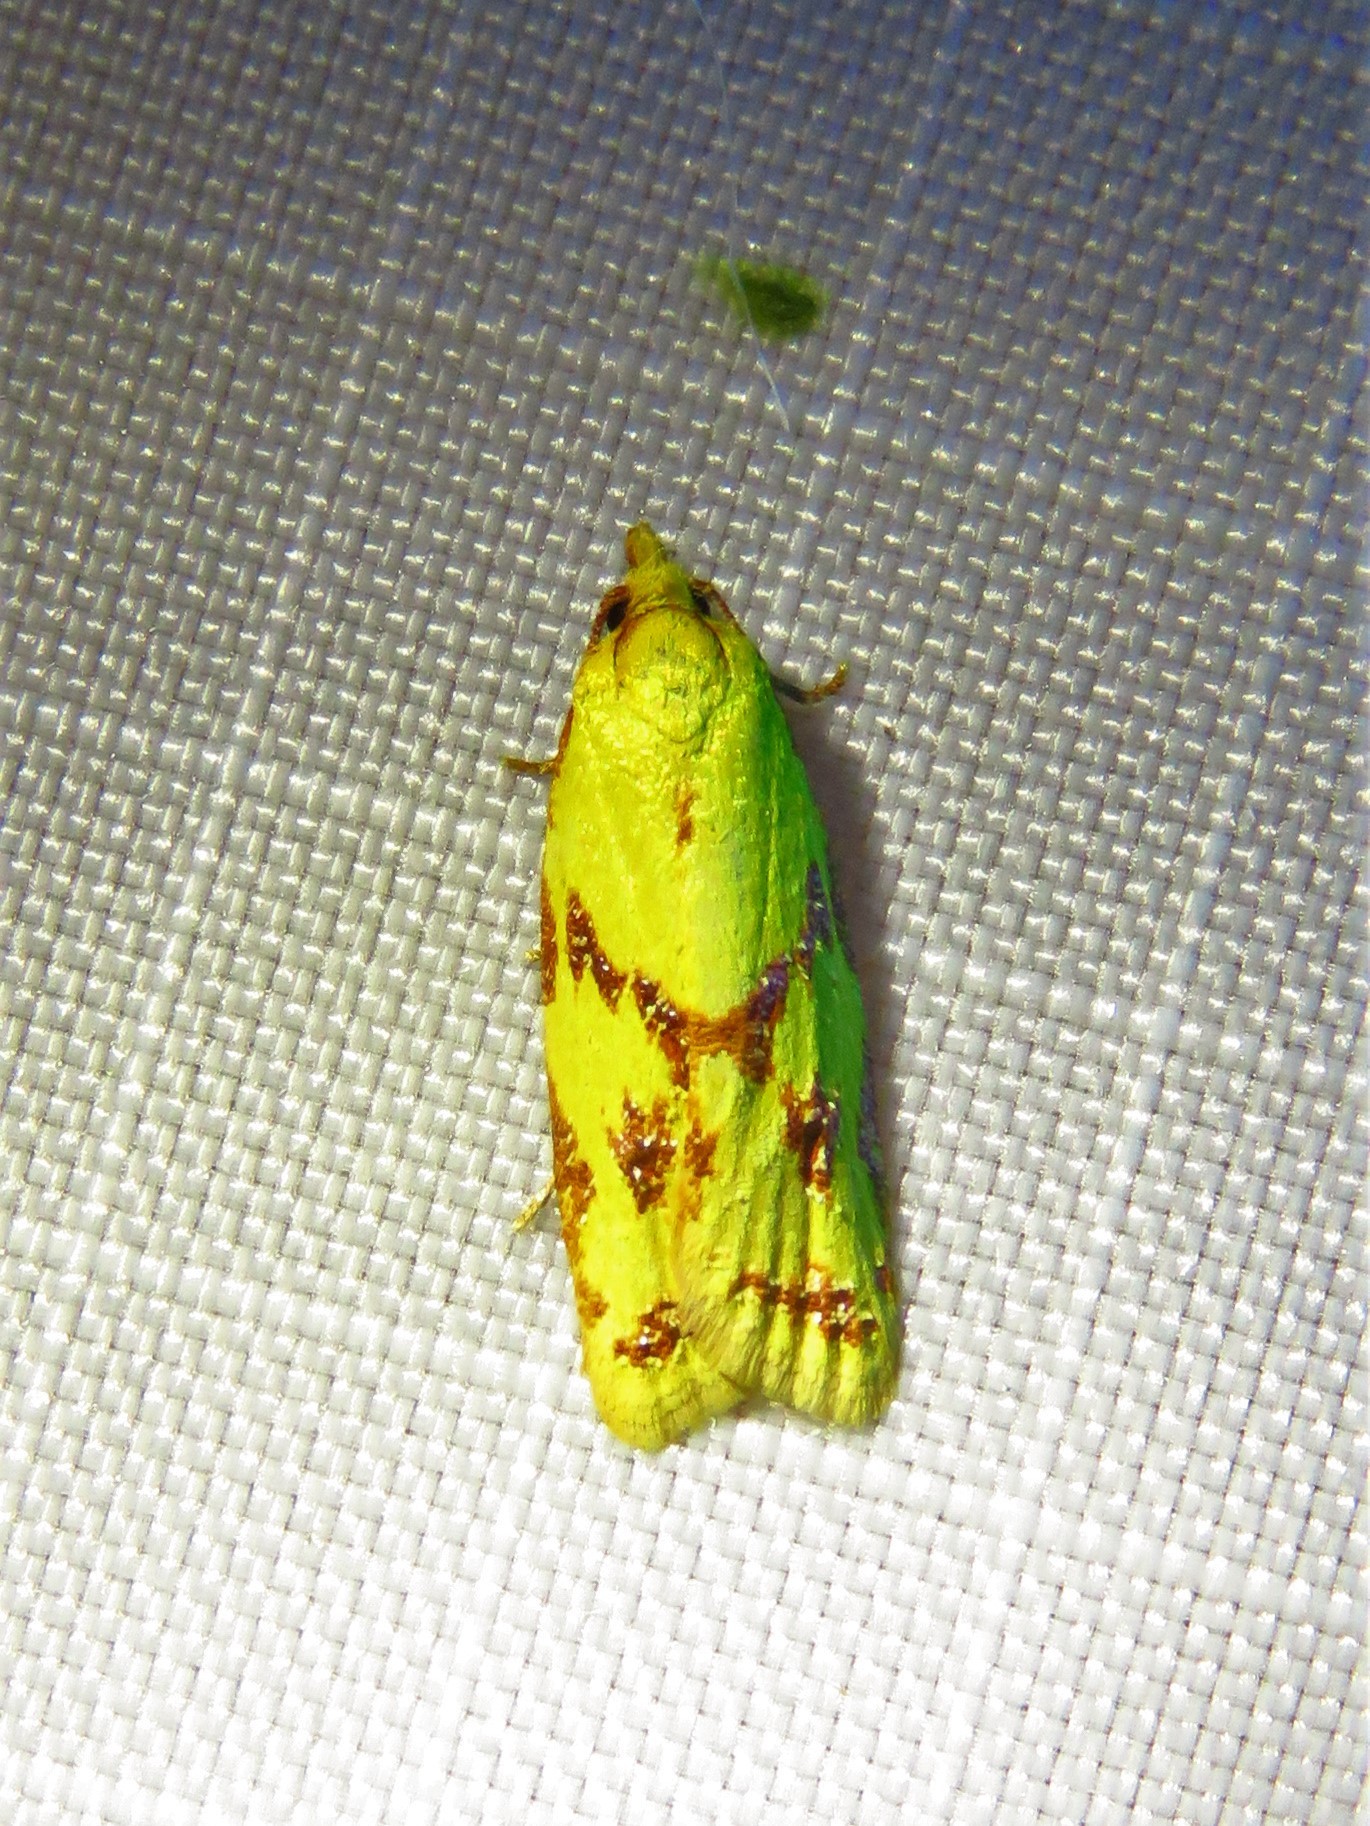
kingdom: Animalia
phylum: Arthropoda
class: Insecta
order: Lepidoptera
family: Tortricidae
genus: Sparganothis
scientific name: Sparganothis sulfureana
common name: Sparganothis fruitworm moth
